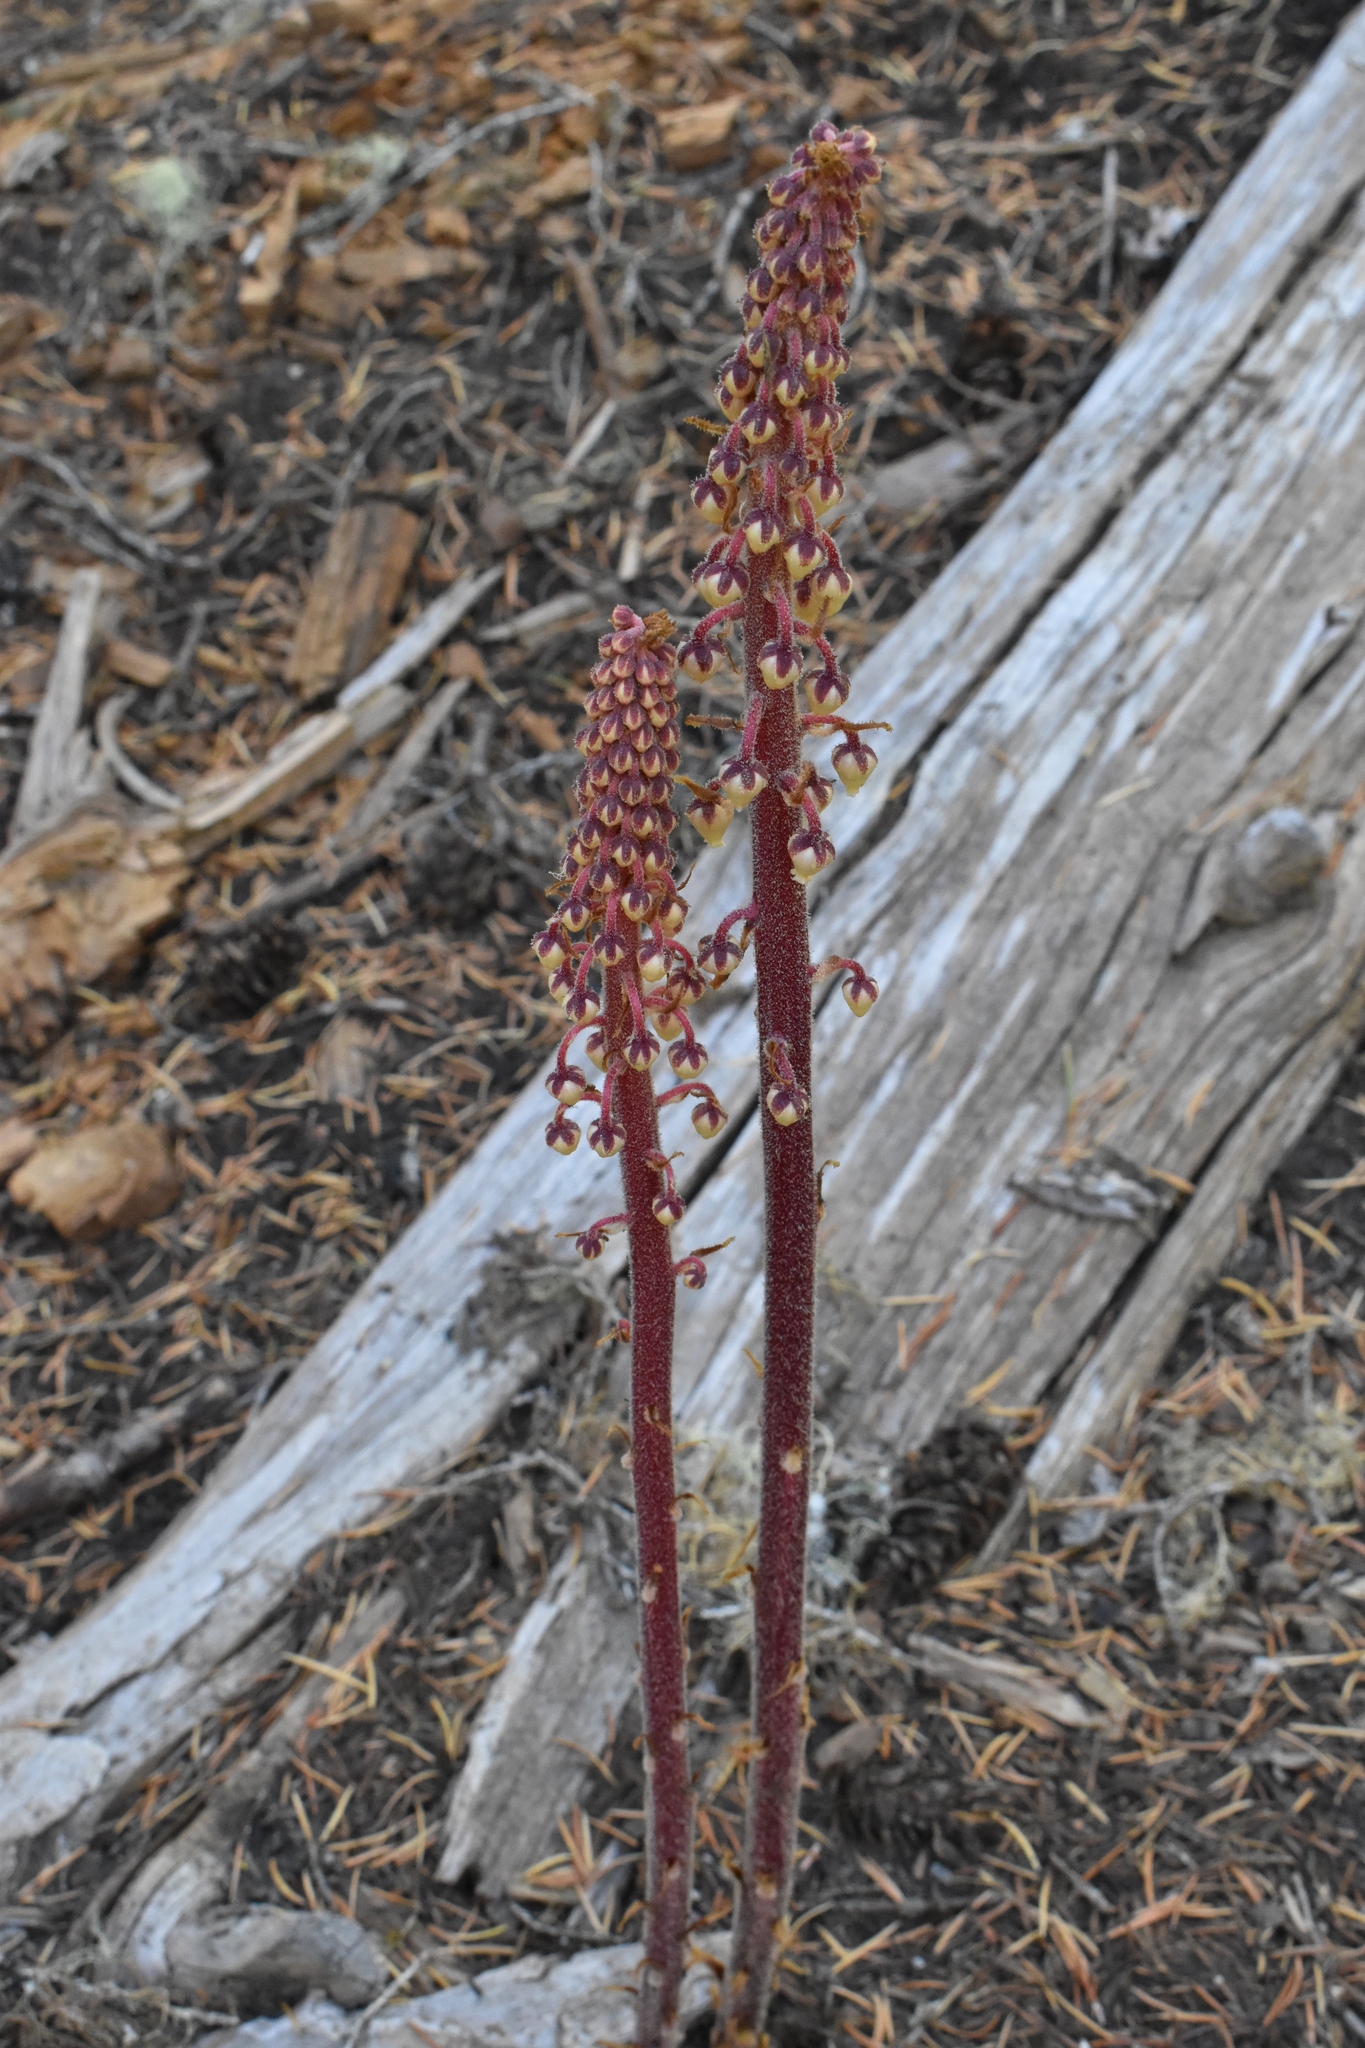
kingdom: Plantae
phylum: Tracheophyta
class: Magnoliopsida
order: Ericales
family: Ericaceae
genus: Pterospora
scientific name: Pterospora andromedea
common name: Giant bird's-nest
